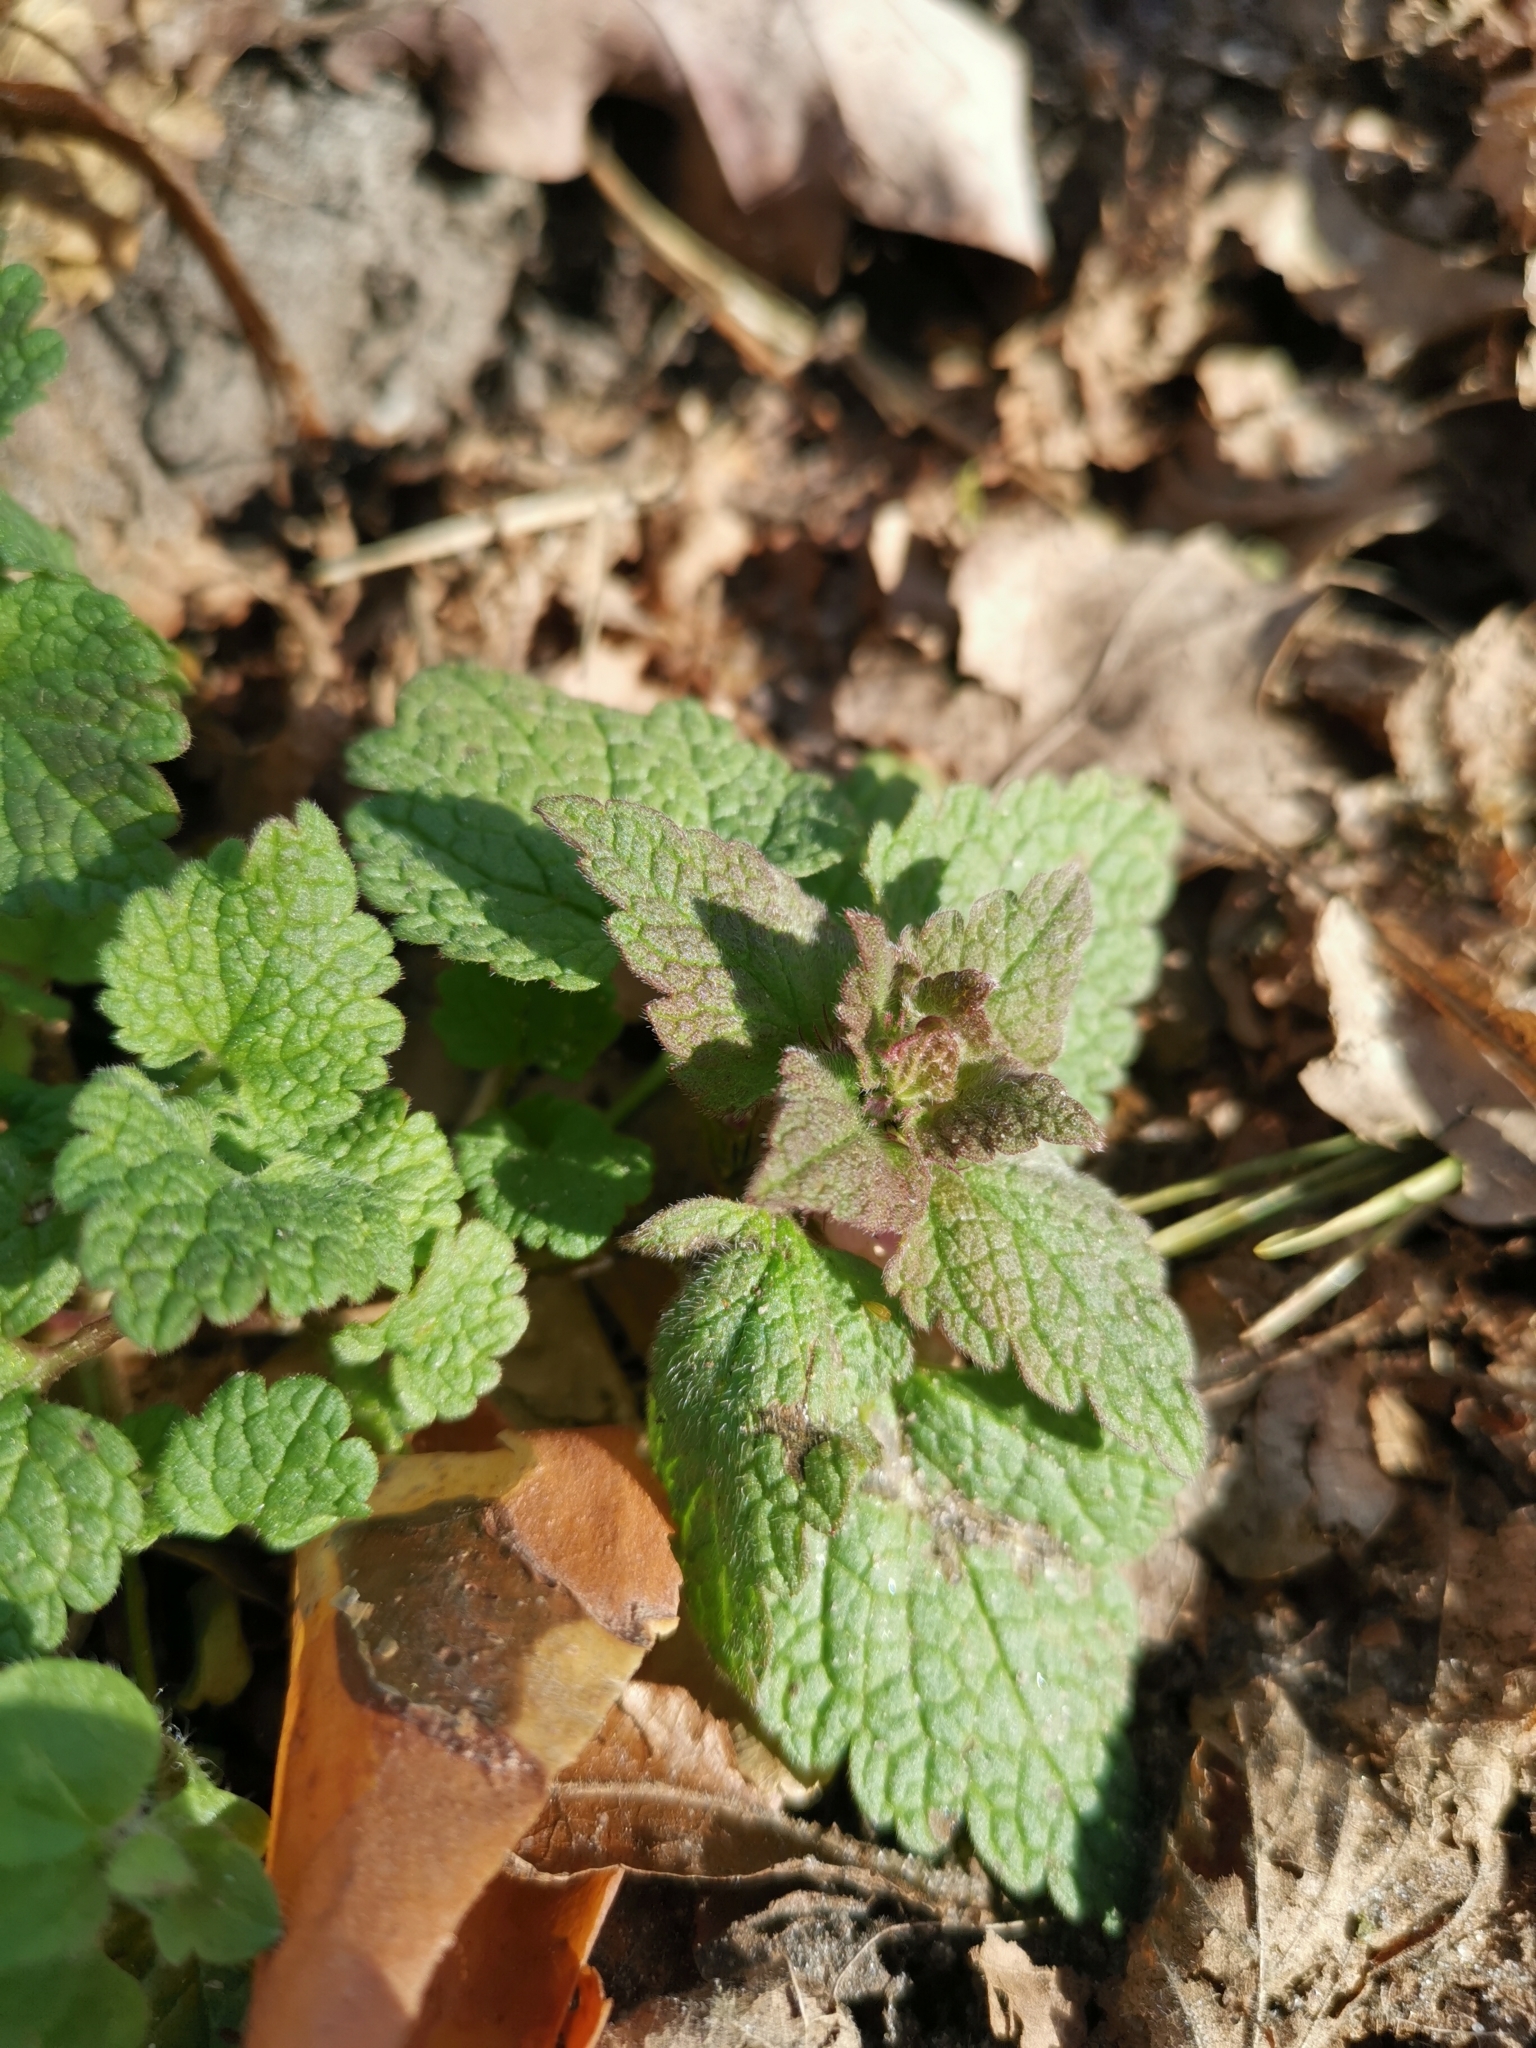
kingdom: Plantae
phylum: Tracheophyta
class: Magnoliopsida
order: Lamiales
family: Lamiaceae
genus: Lamium
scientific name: Lamium purpureum
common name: Red dead-nettle
